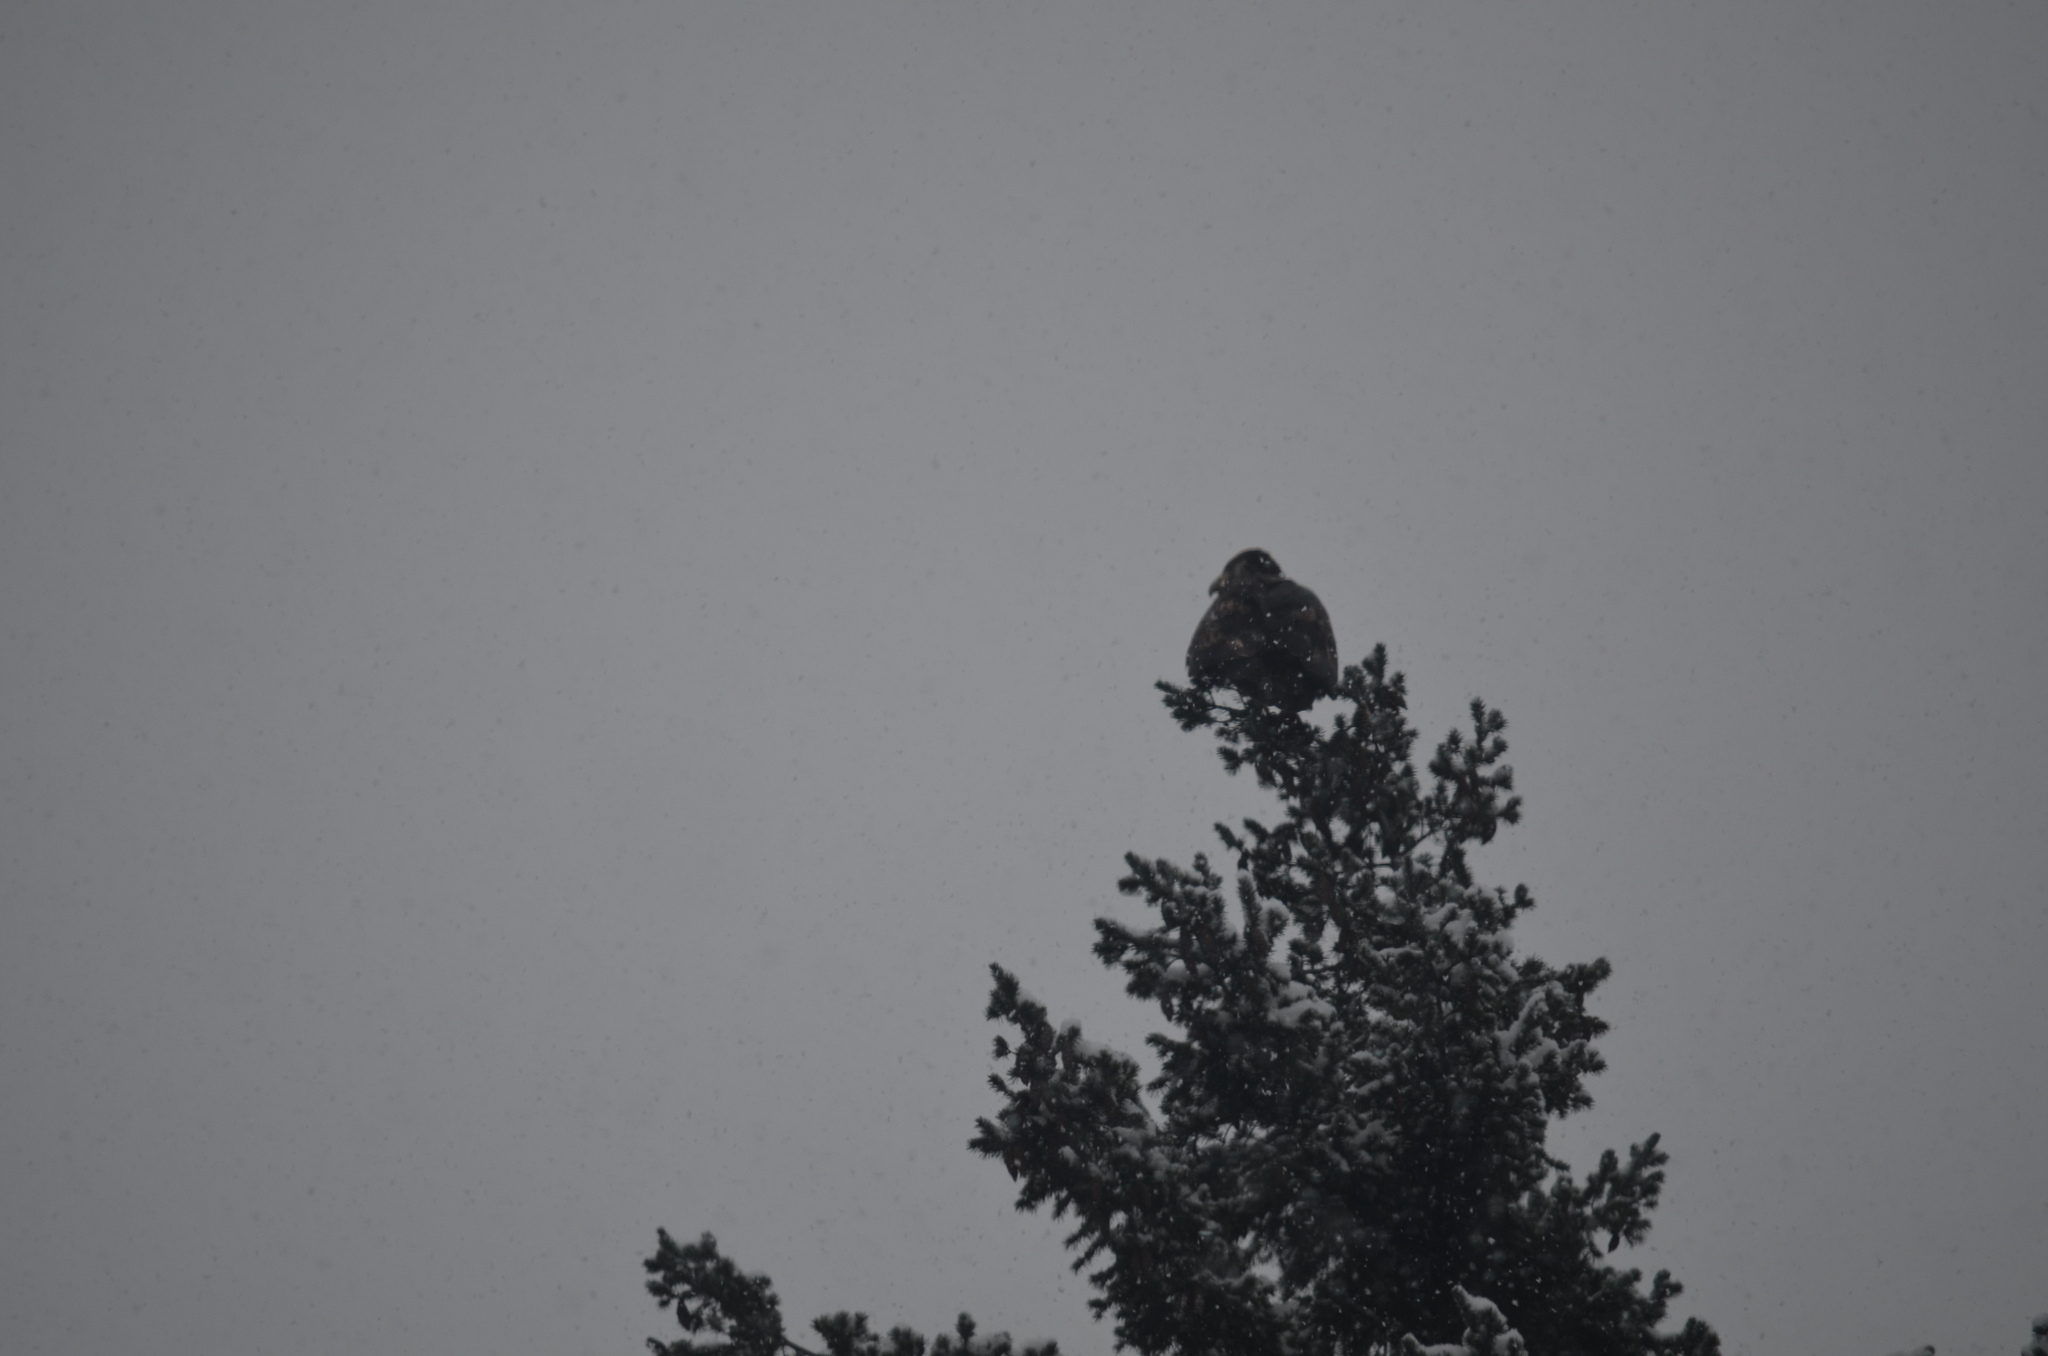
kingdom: Animalia
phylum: Chordata
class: Aves
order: Accipitriformes
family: Accipitridae
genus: Haliaeetus
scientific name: Haliaeetus leucocephalus
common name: Bald eagle
